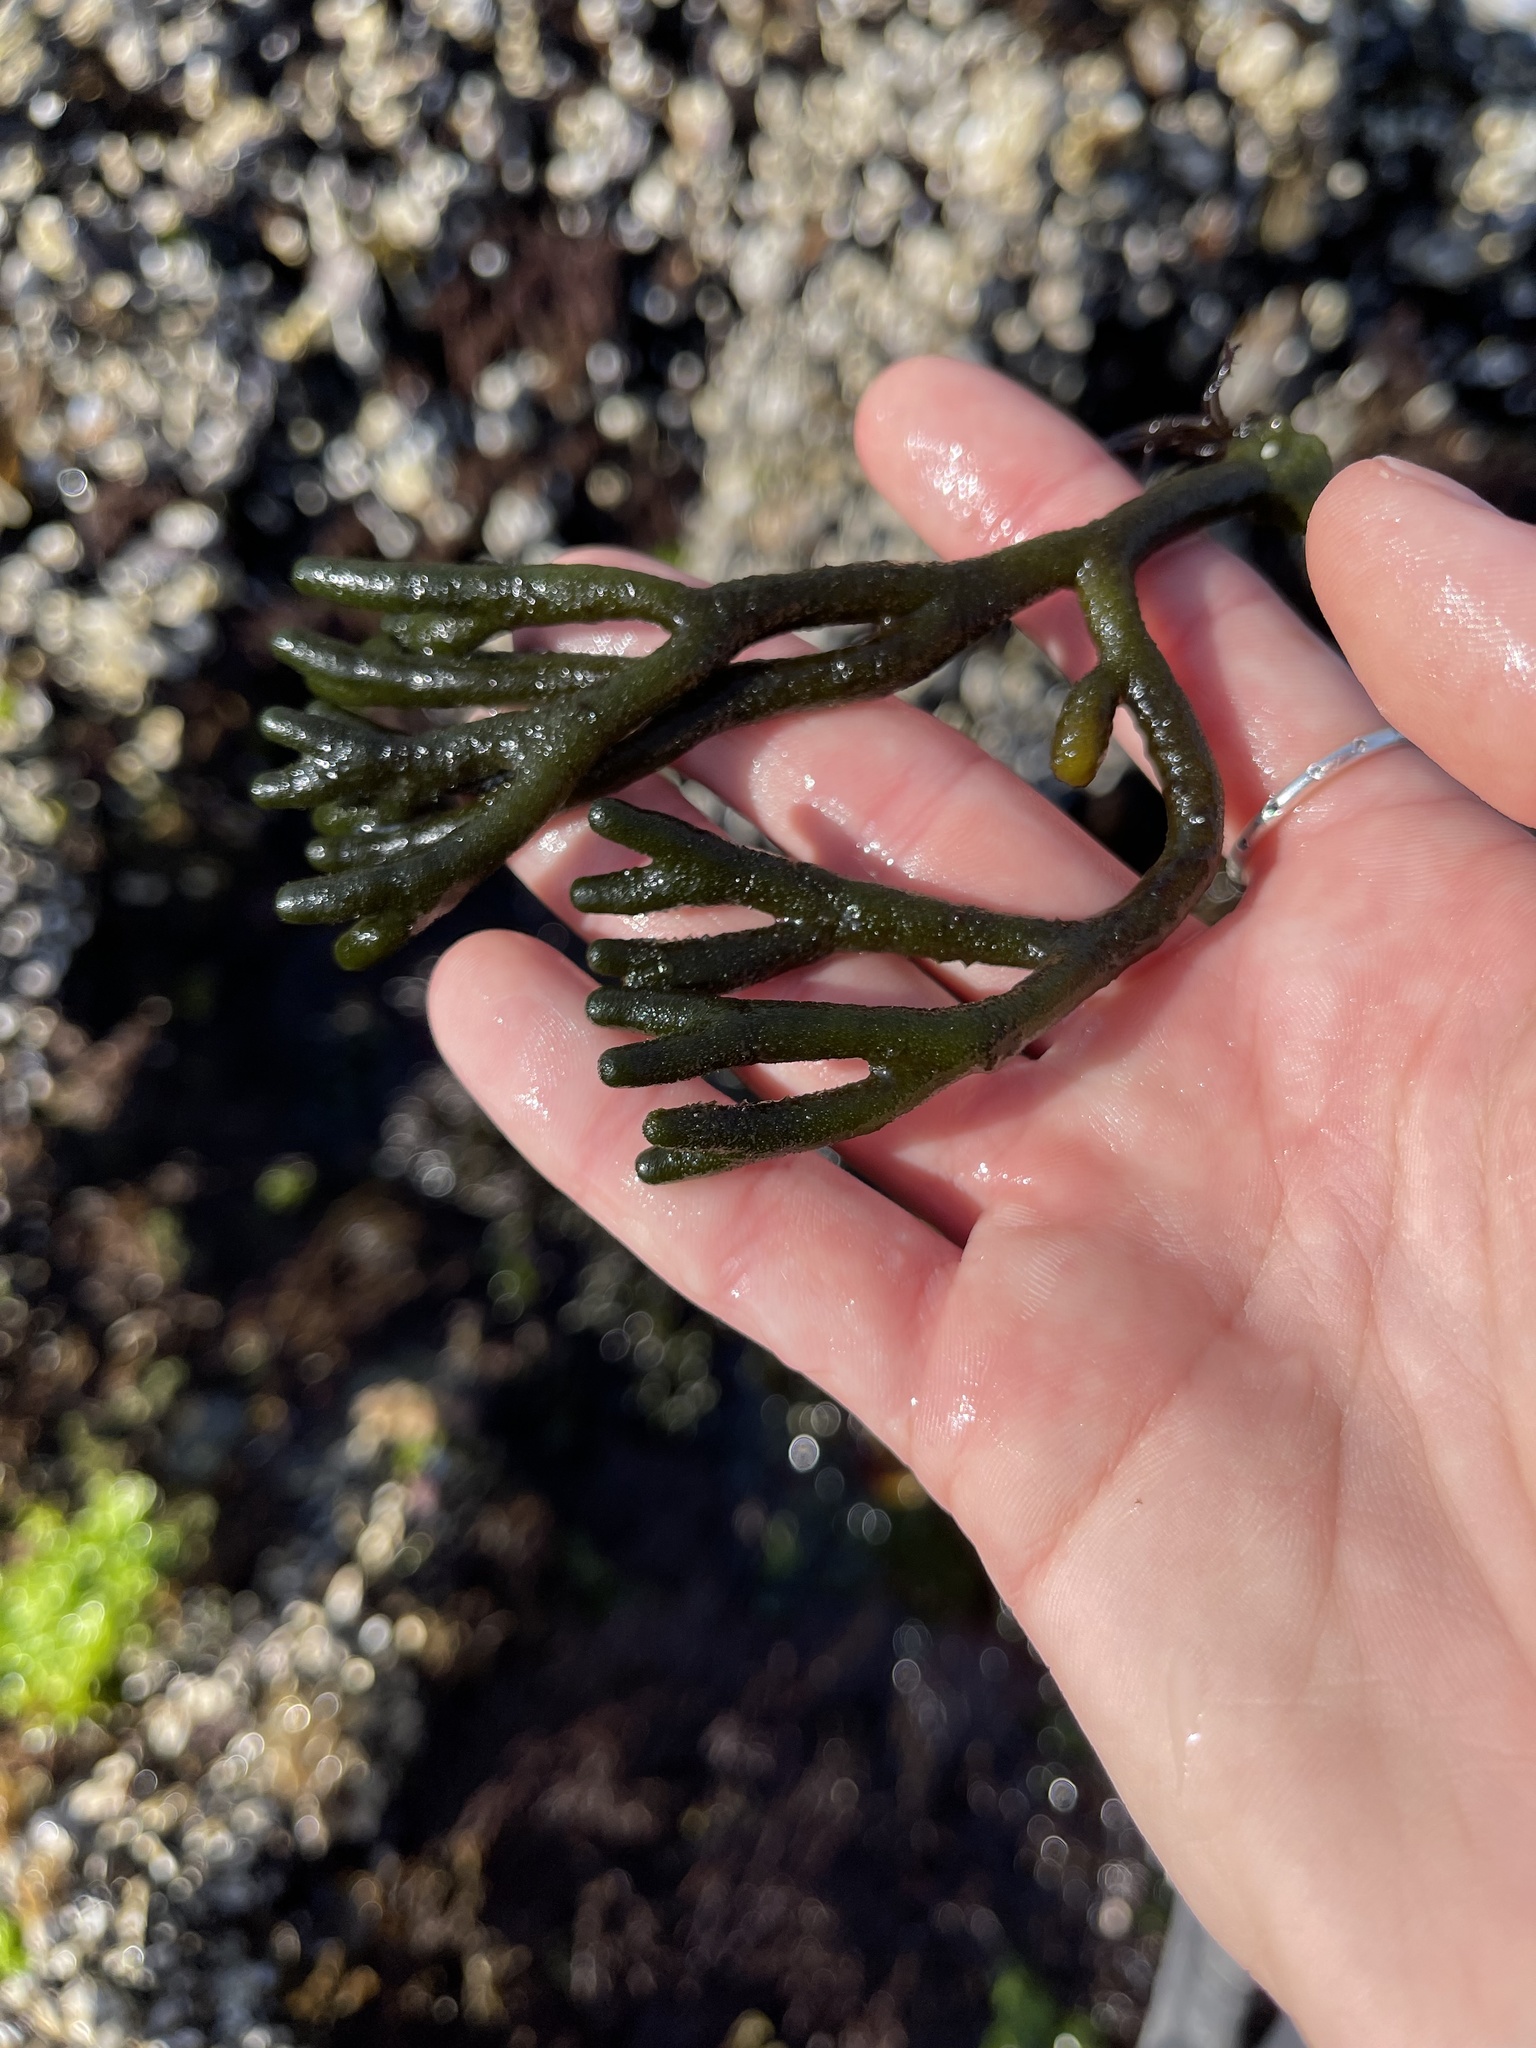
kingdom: Plantae
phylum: Chlorophyta
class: Ulvophyceae
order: Bryopsidales
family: Codiaceae
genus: Codium
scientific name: Codium fragile
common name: Dead man's fingers
